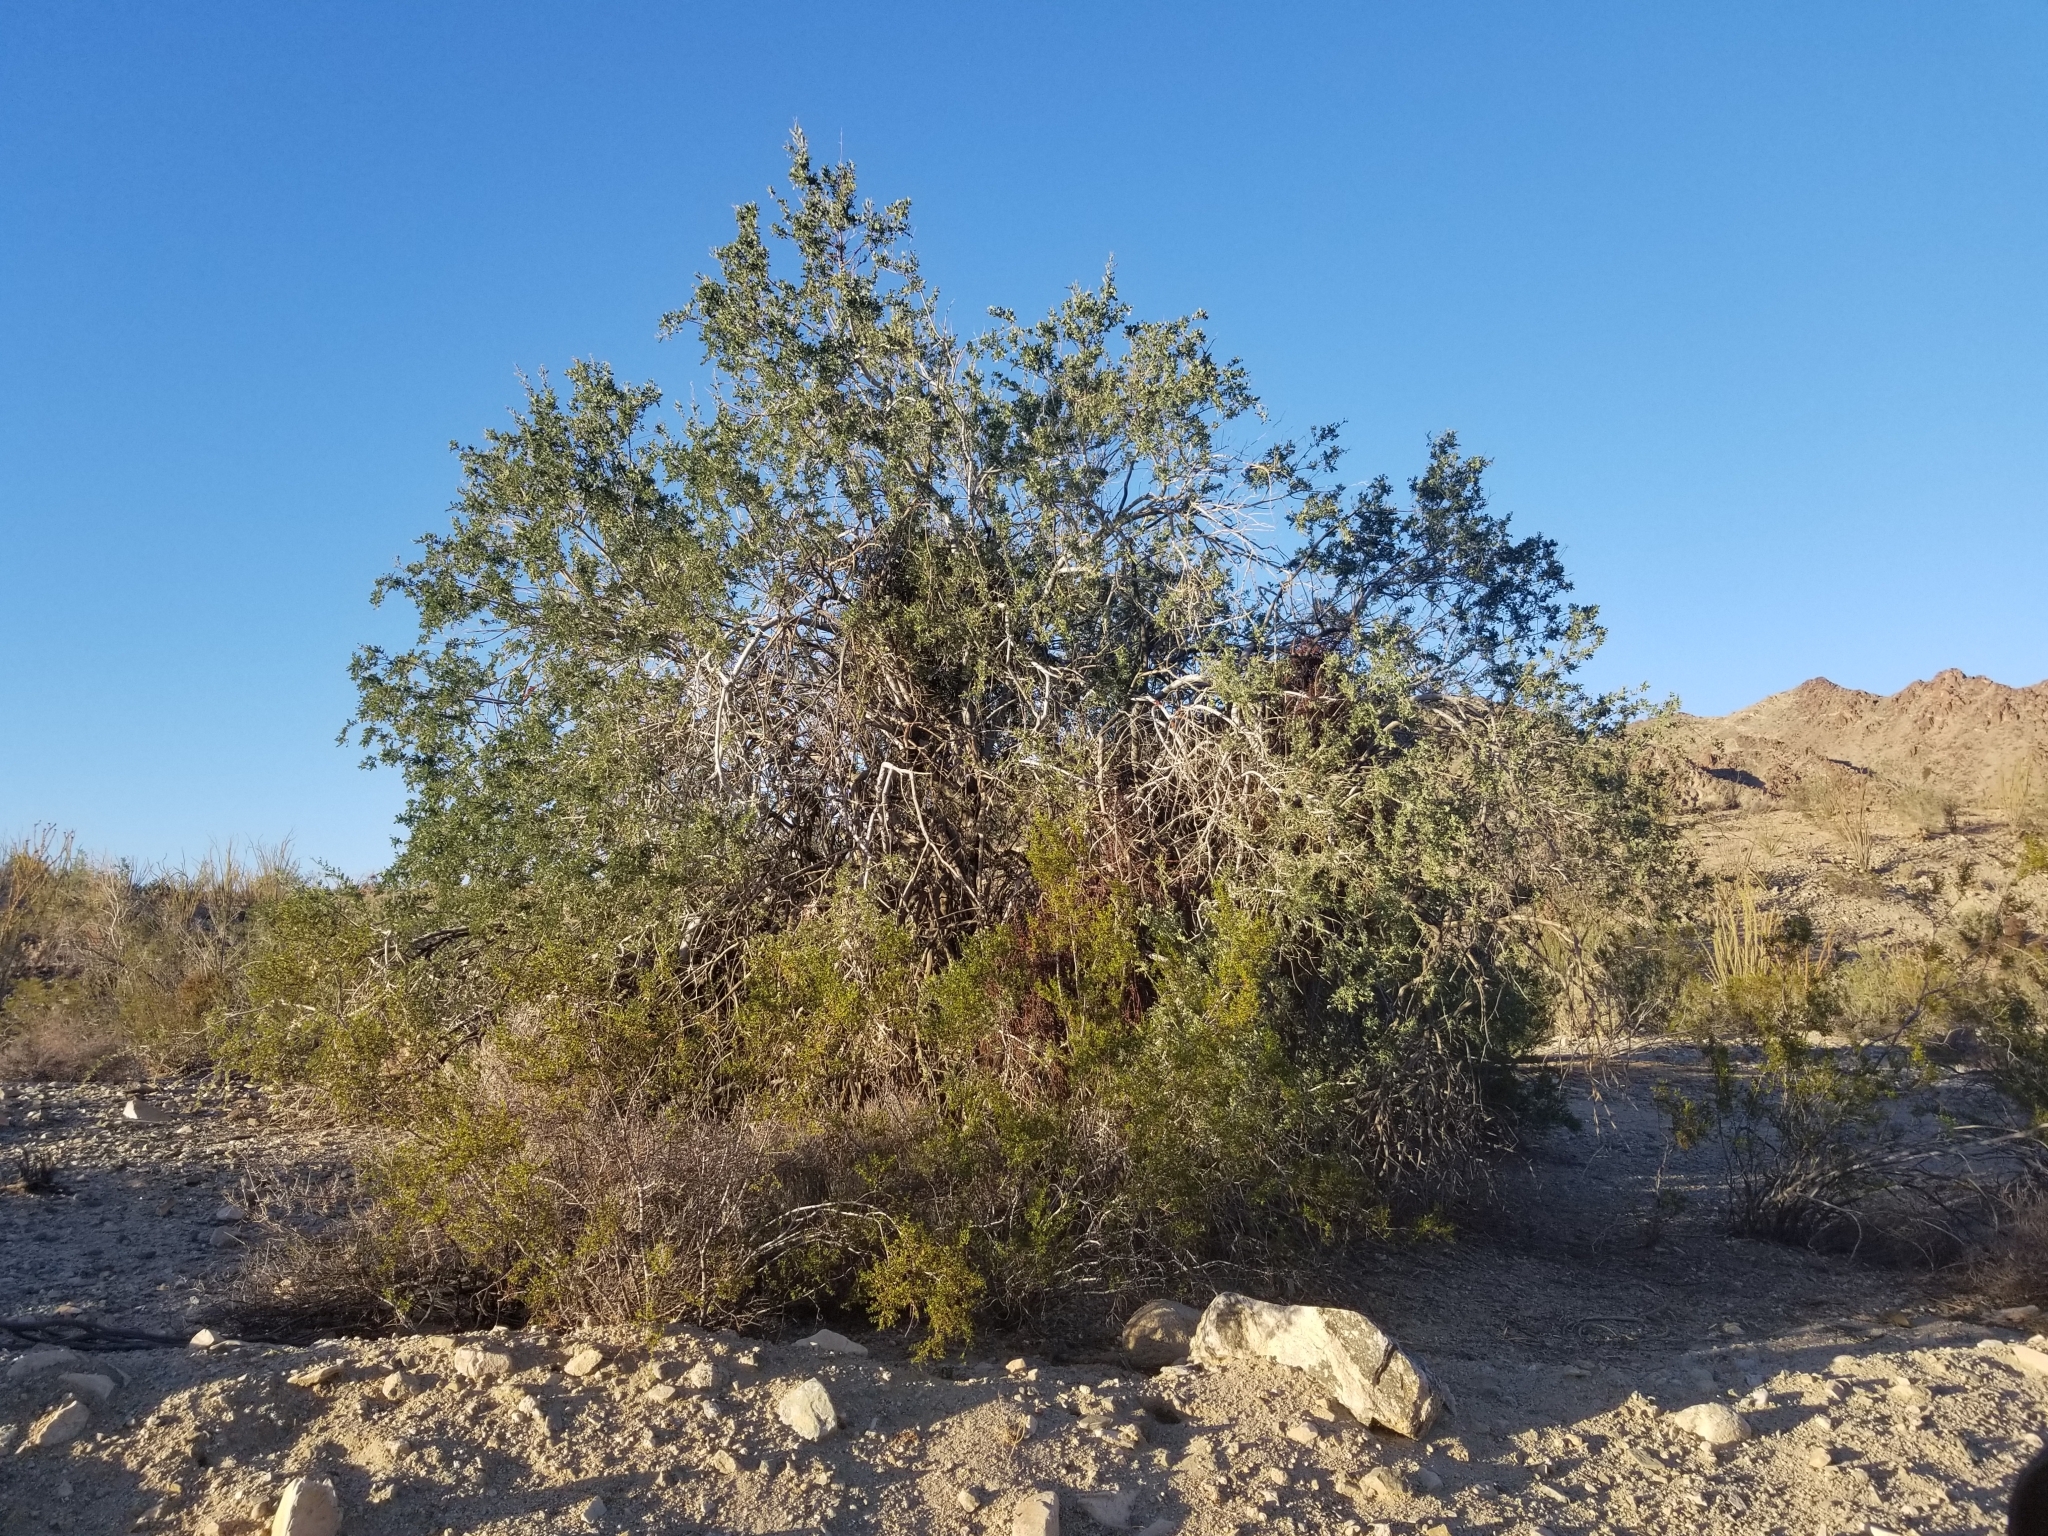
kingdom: Plantae
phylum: Tracheophyta
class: Magnoliopsida
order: Fabales
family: Fabaceae
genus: Olneya
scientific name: Olneya tesota
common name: Desert ironwood
